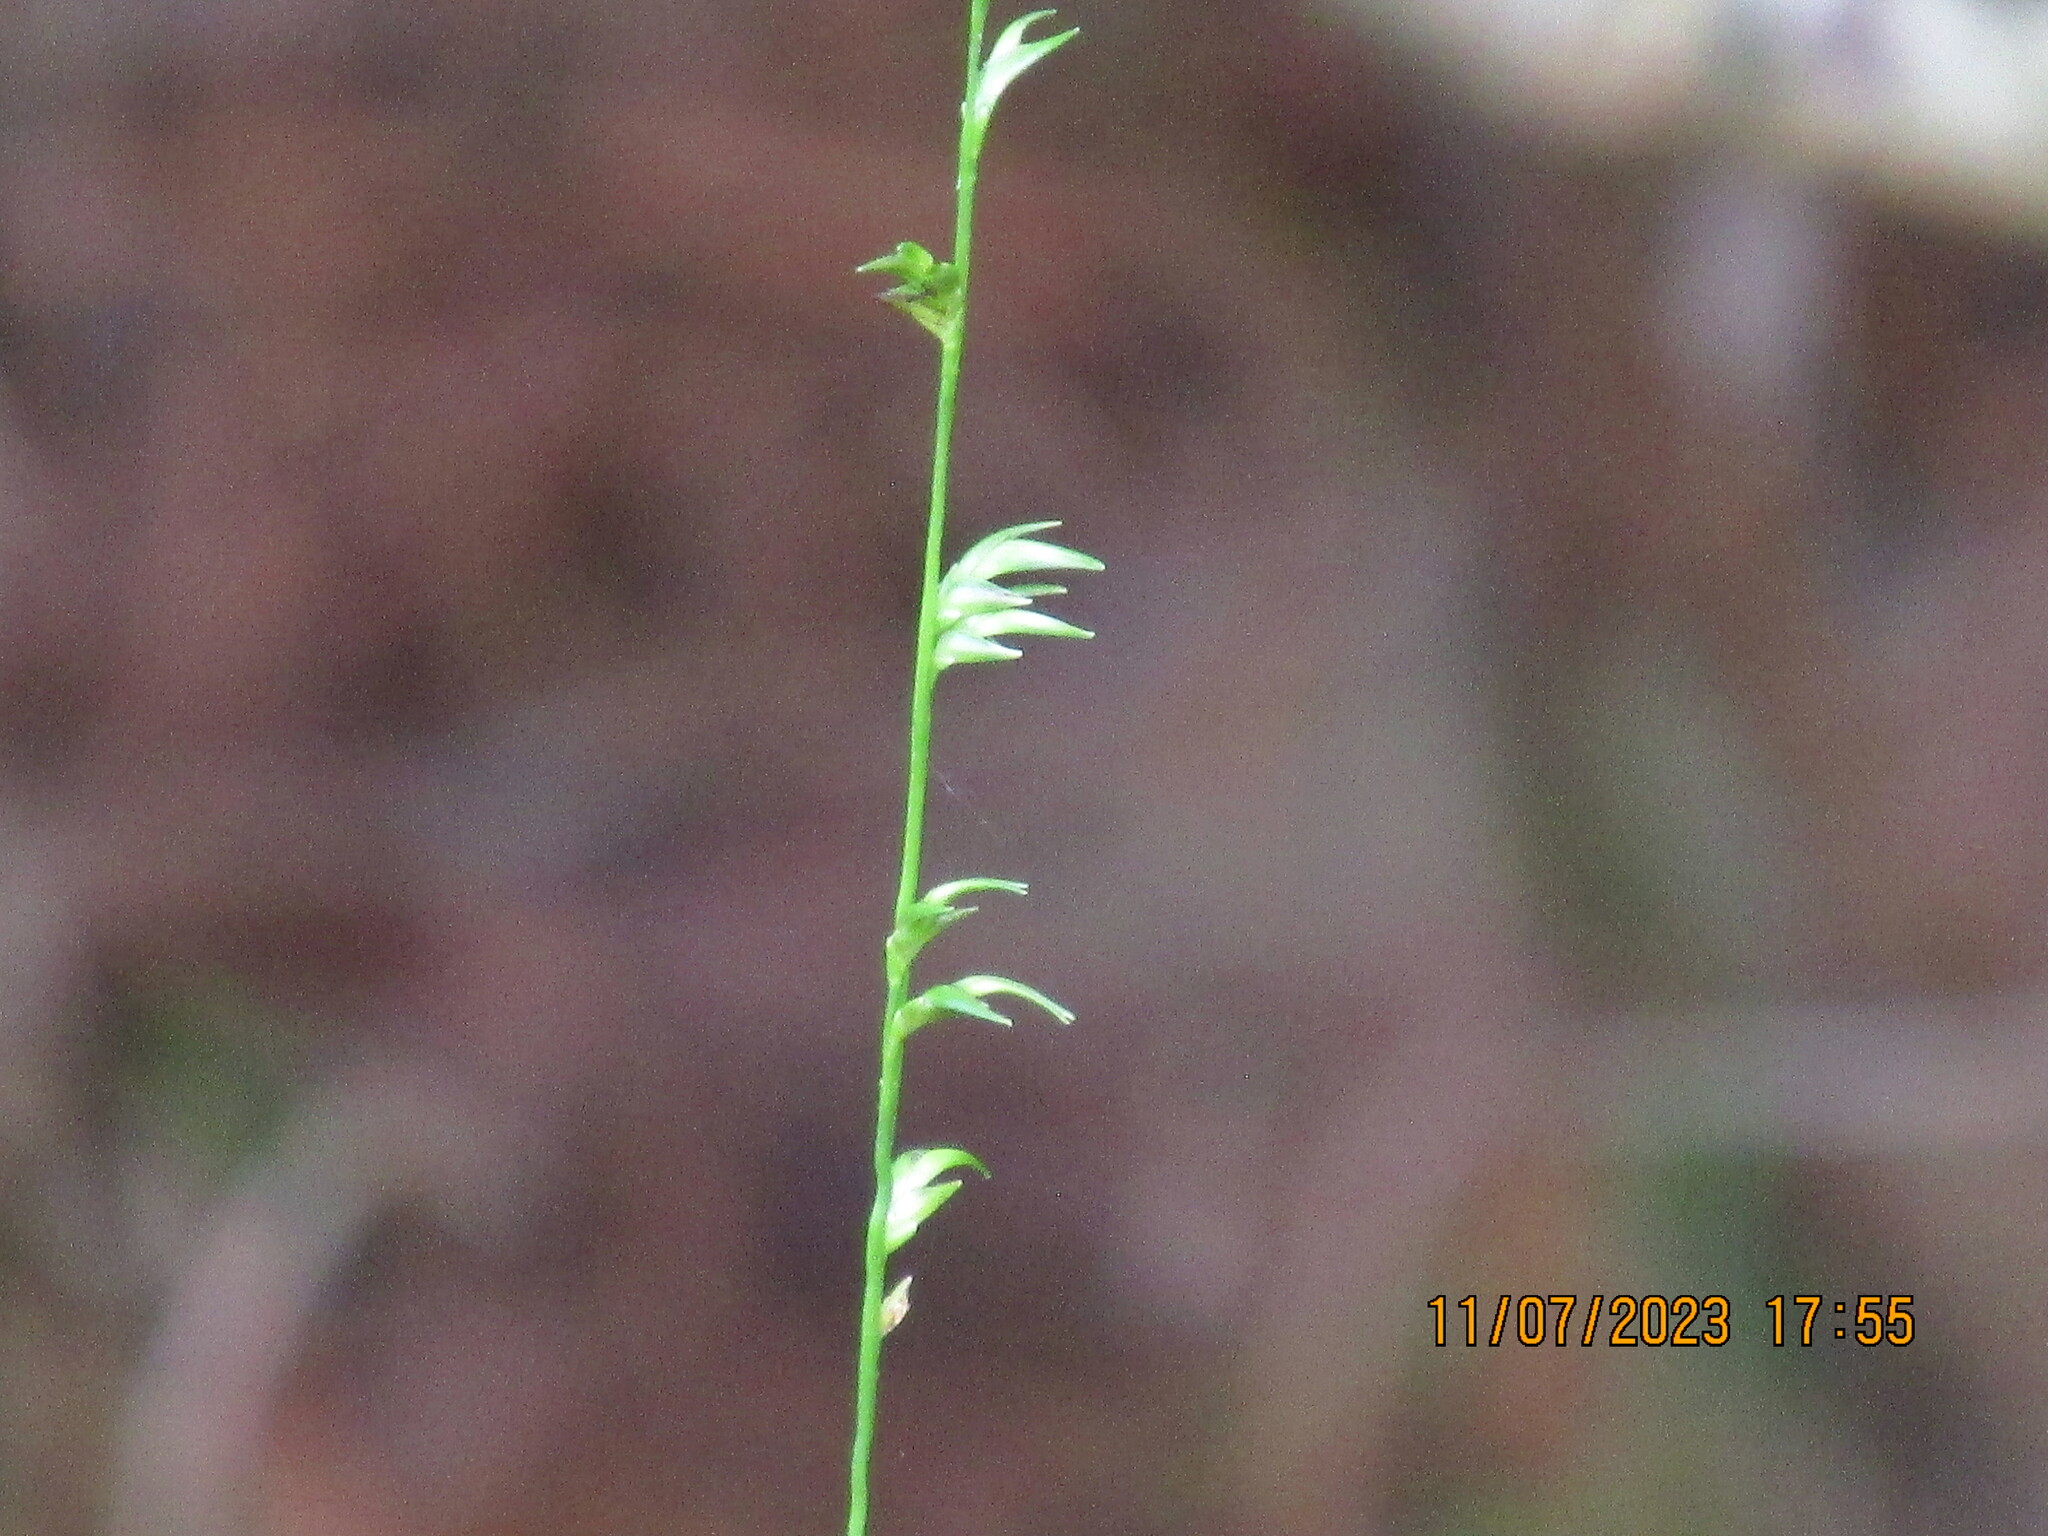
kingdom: Plantae
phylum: Tracheophyta
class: Liliopsida
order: Poales
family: Poaceae
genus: Chasmanthium
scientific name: Chasmanthium laxum
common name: Slender chasmanthium
